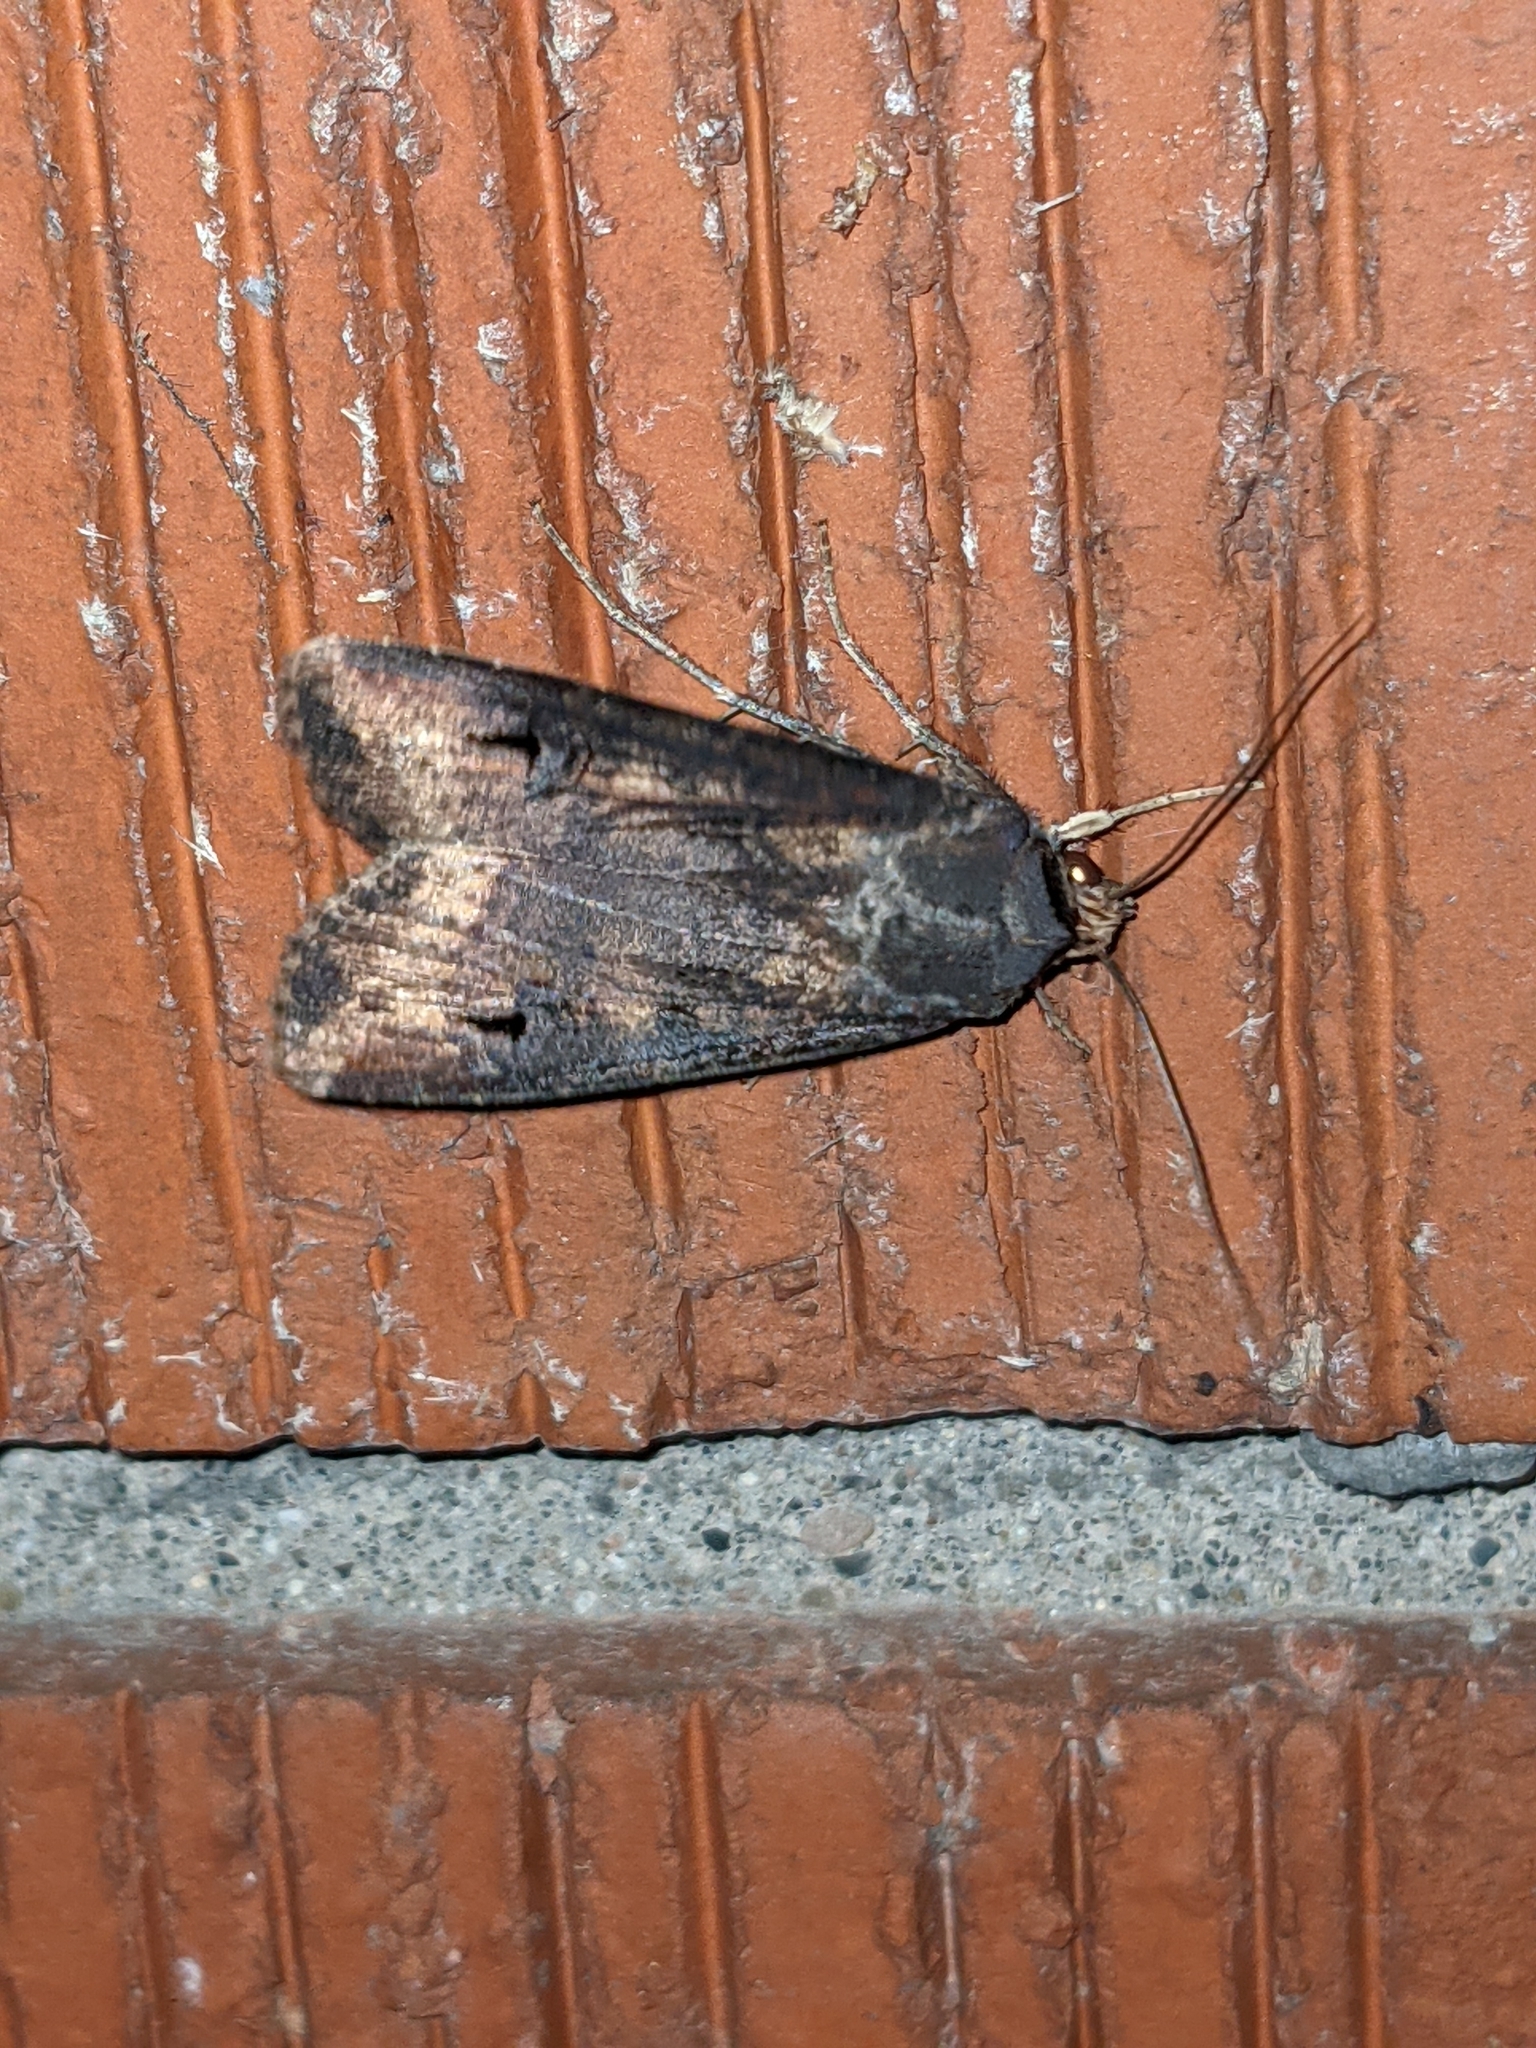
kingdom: Animalia
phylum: Arthropoda
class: Insecta
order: Lepidoptera
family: Noctuidae
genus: Agrotis
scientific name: Agrotis ipsilon
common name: Dark sword-grass
